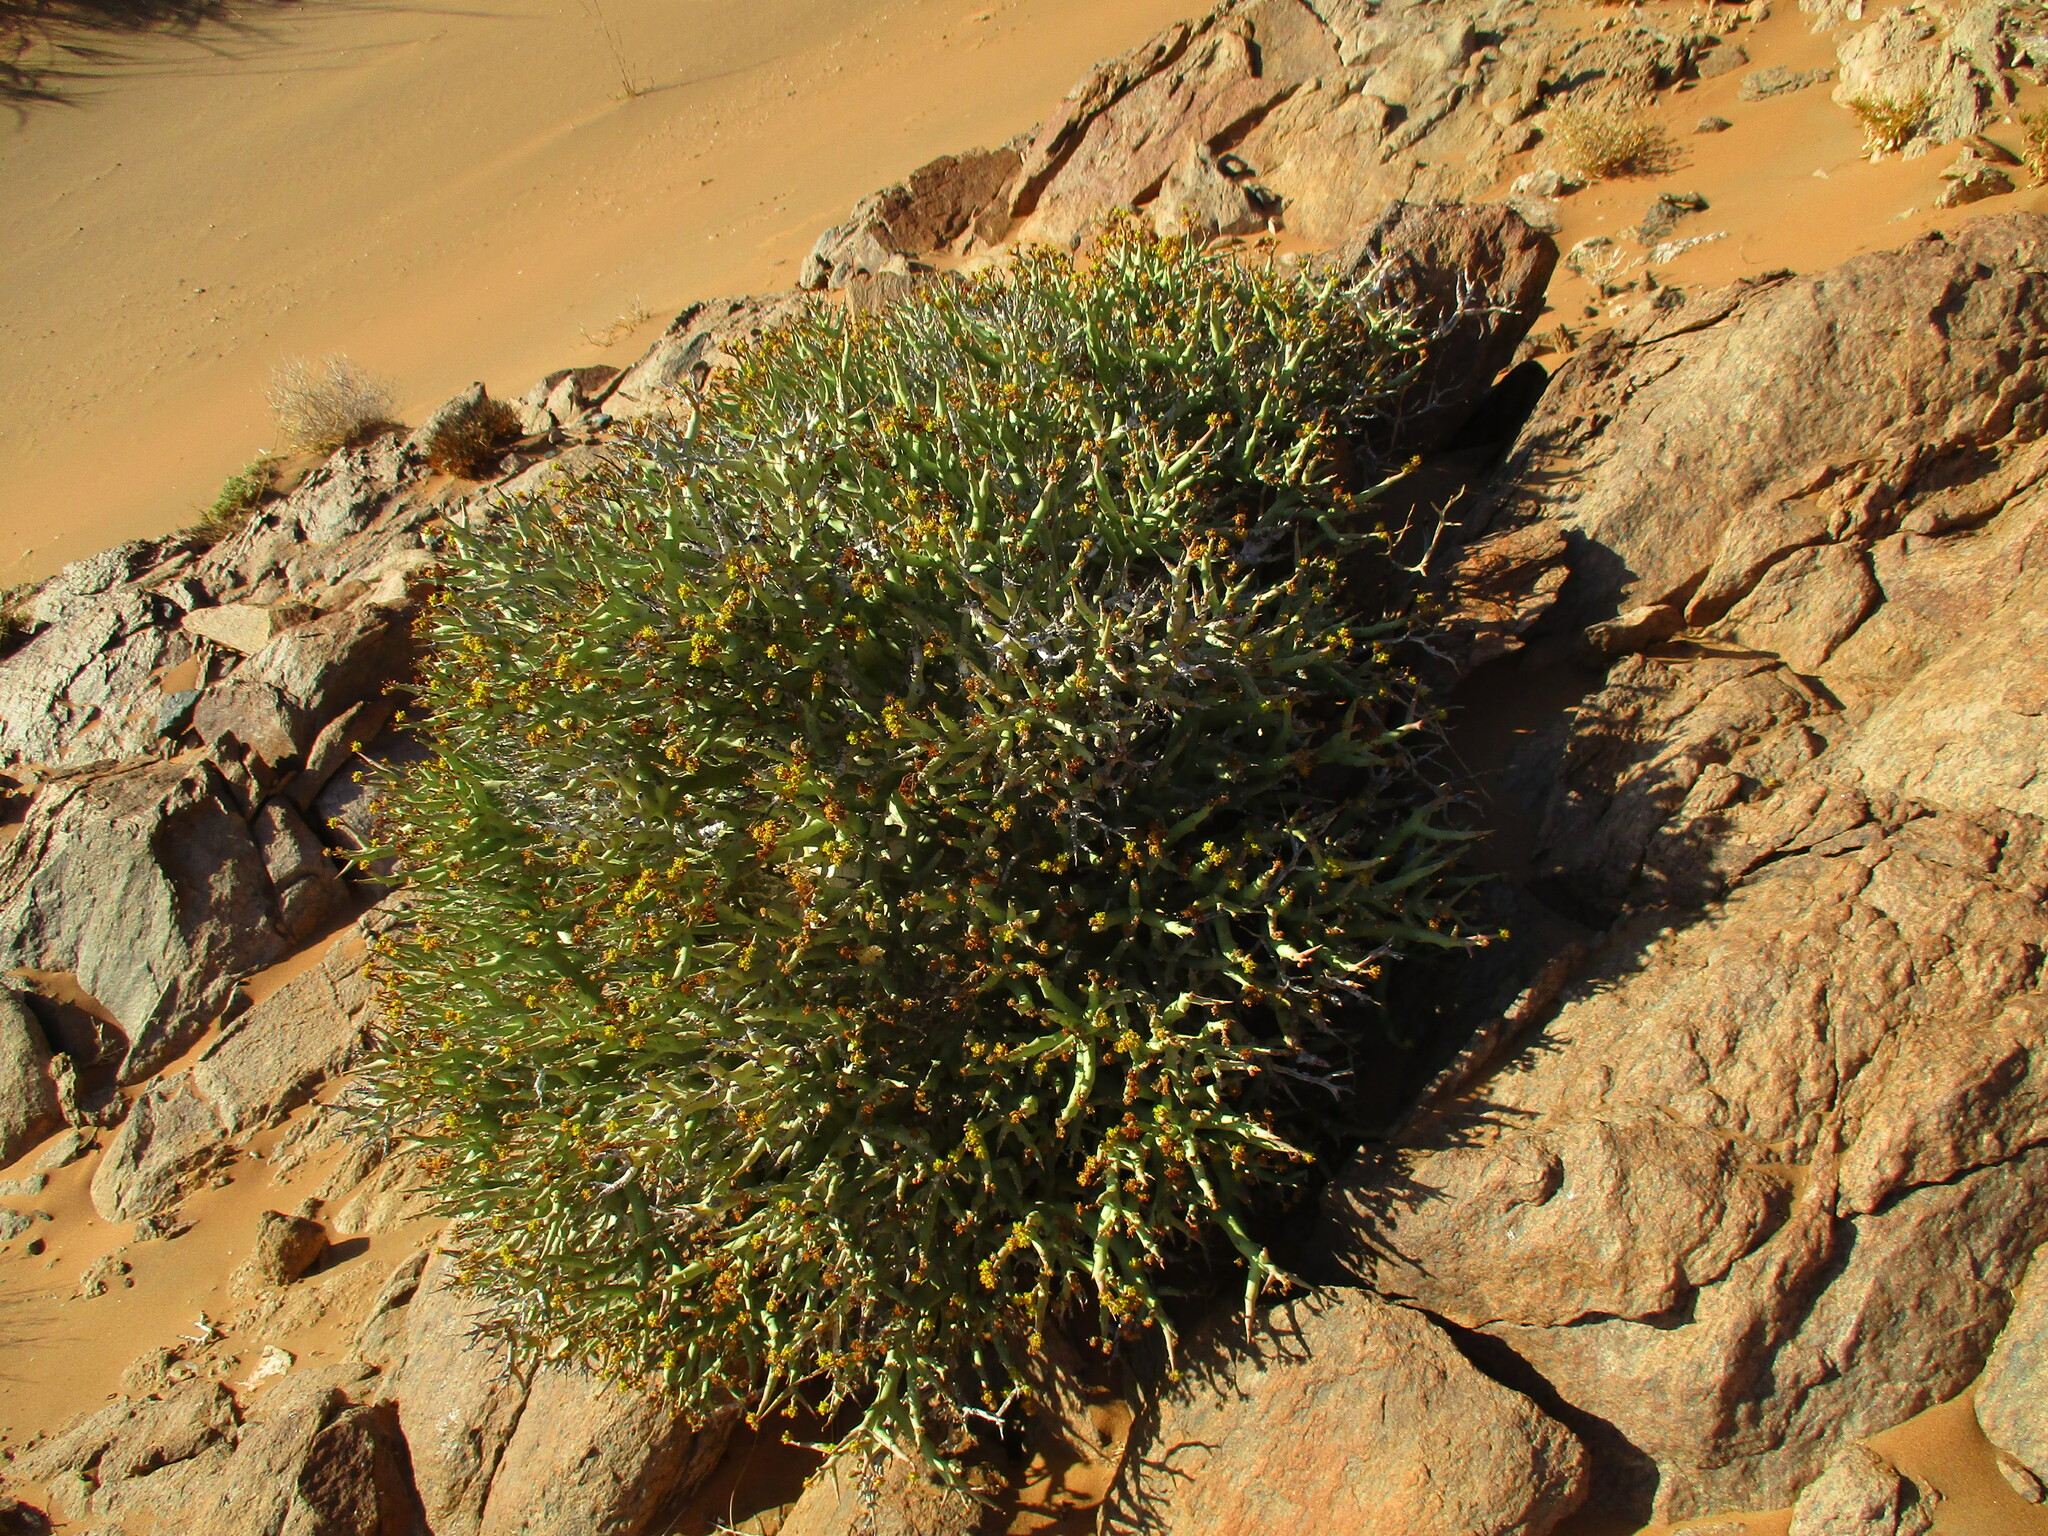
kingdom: Plantae
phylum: Tracheophyta
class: Magnoliopsida
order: Malpighiales
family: Euphorbiaceae
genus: Euphorbia
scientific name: Euphorbia lignosa
